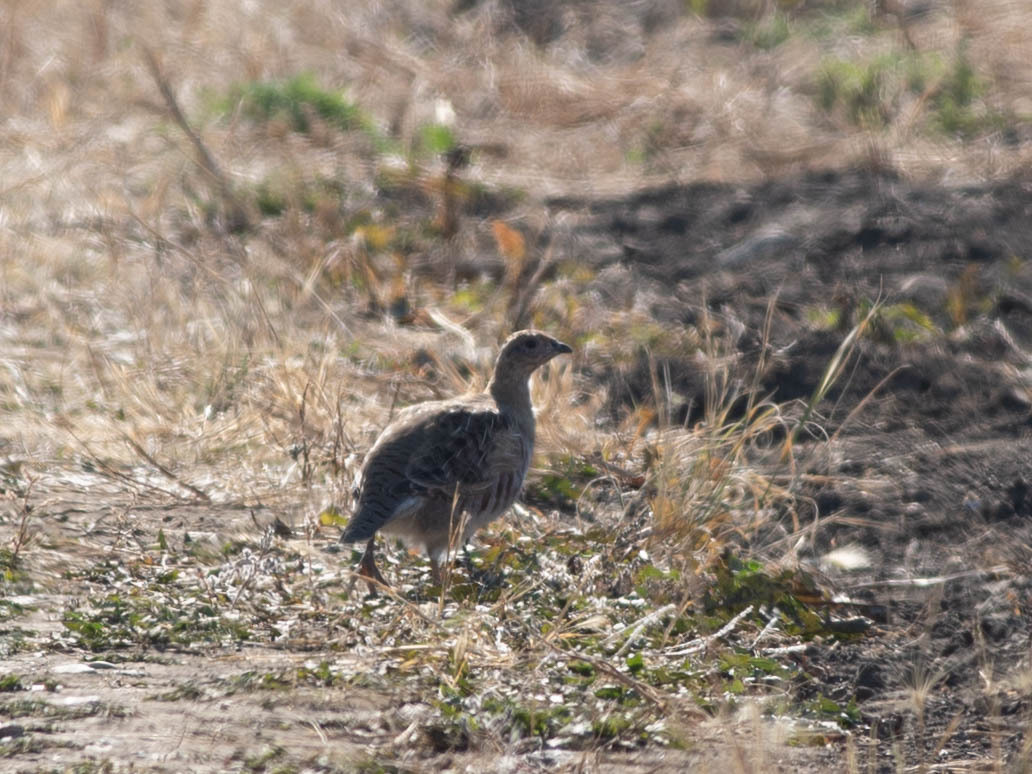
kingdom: Animalia
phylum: Chordata
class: Aves
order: Galliformes
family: Phasianidae
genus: Perdix
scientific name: Perdix perdix
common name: Grey partridge
